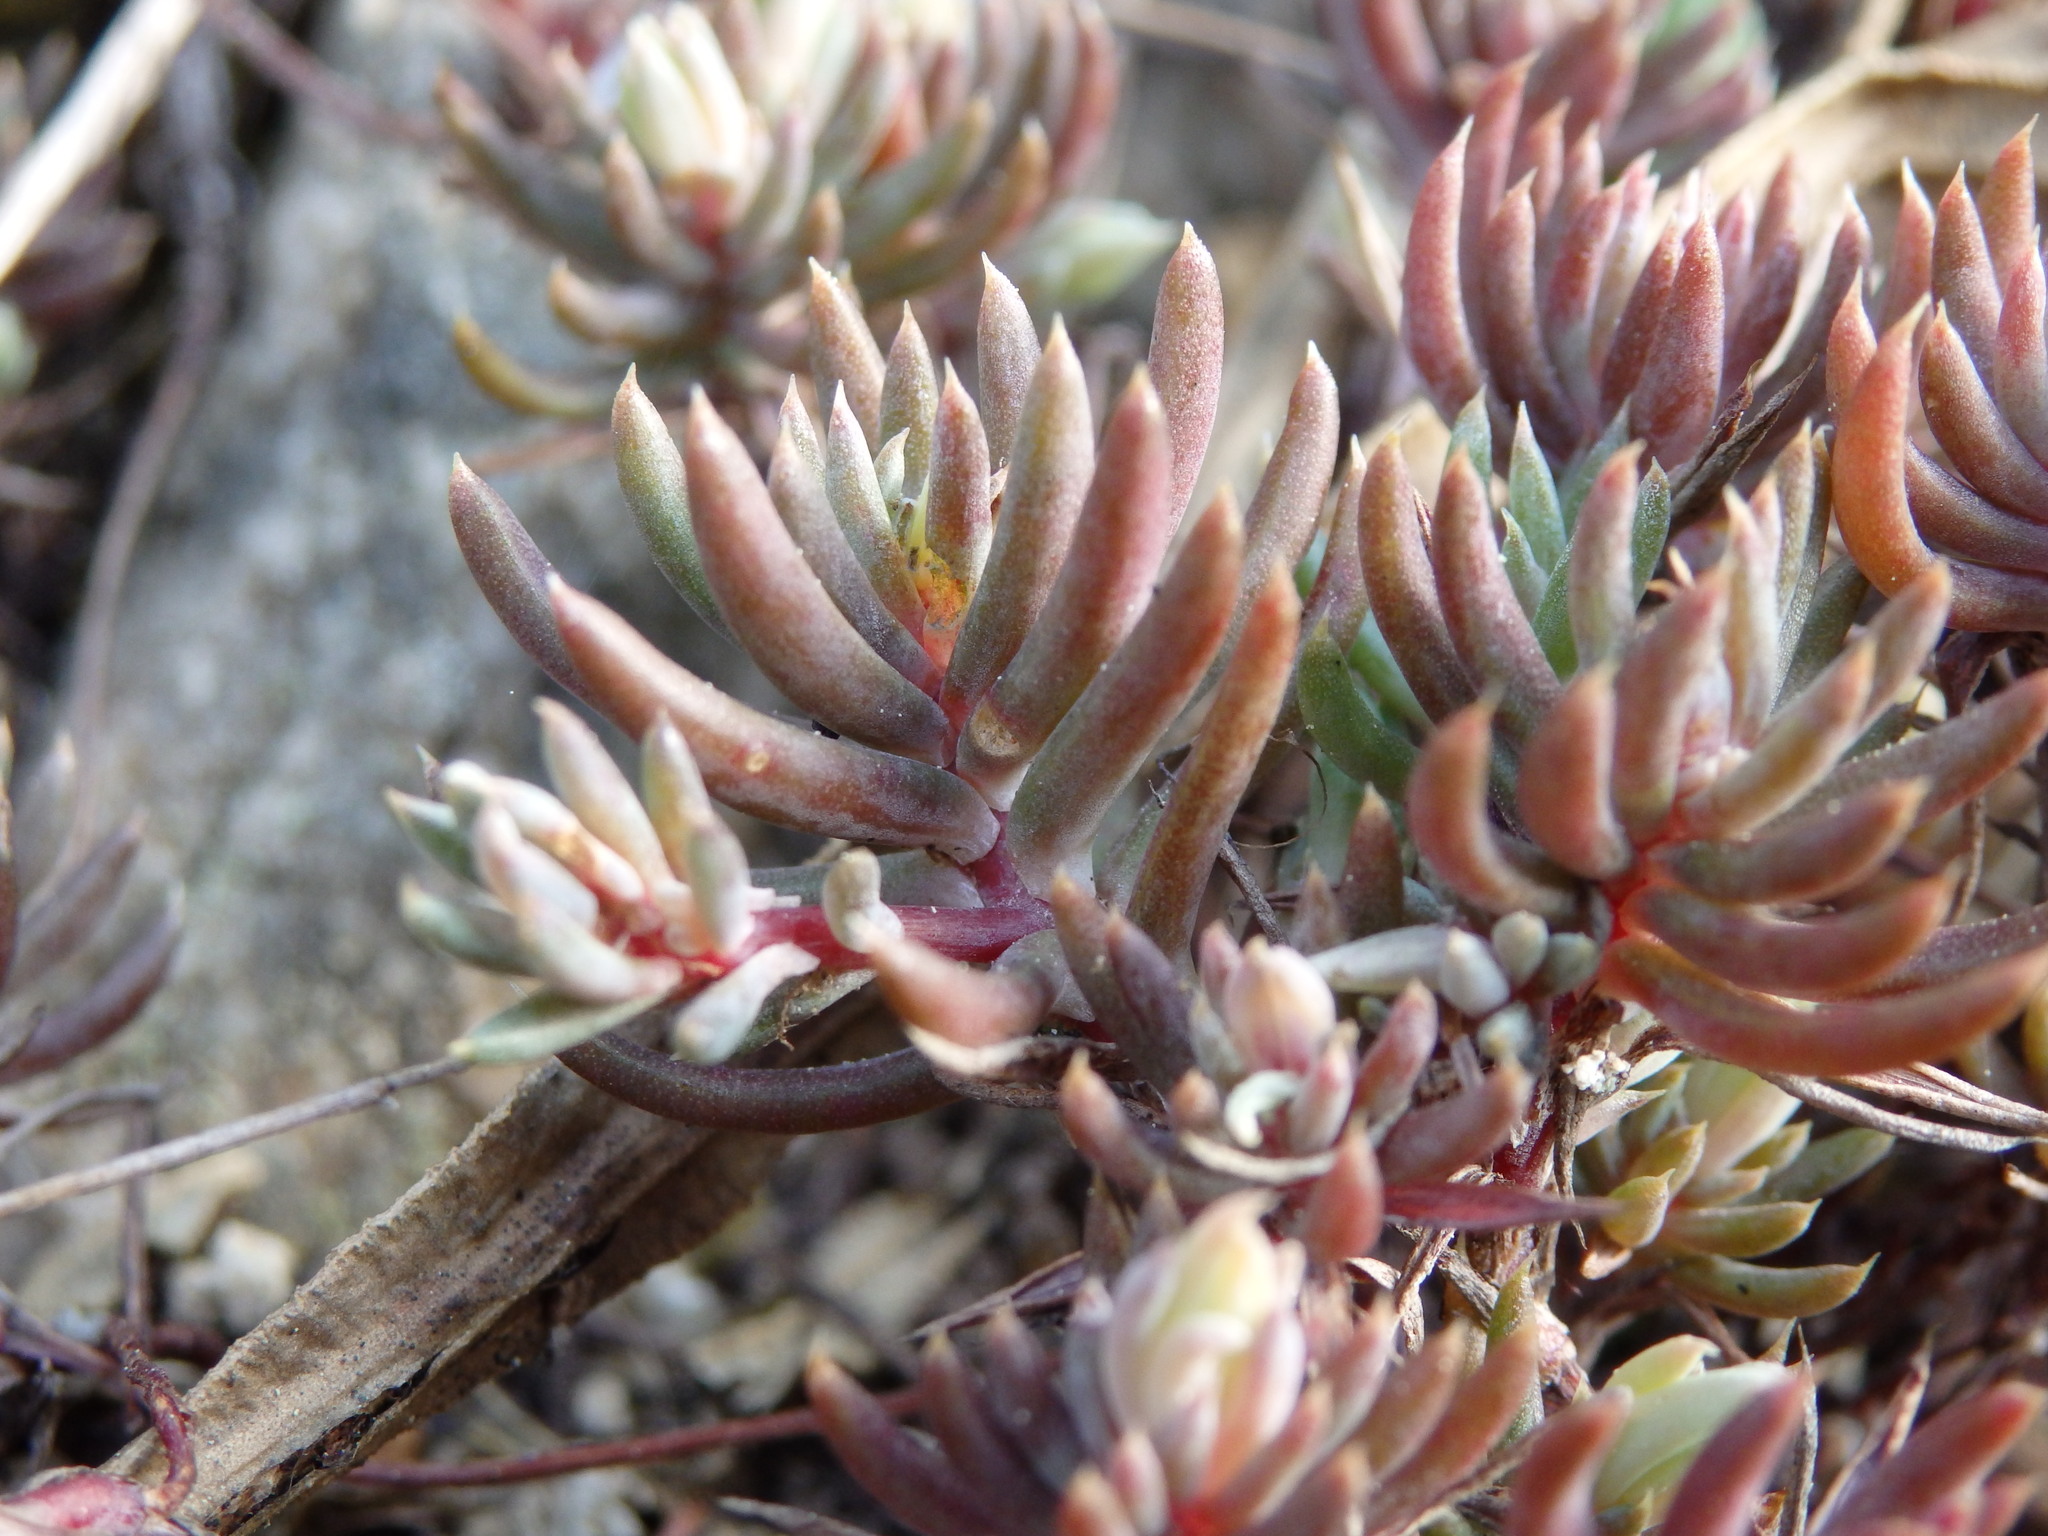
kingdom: Plantae
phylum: Tracheophyta
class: Magnoliopsida
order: Saxifragales
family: Crassulaceae
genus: Petrosedum
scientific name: Petrosedum pruinatum
